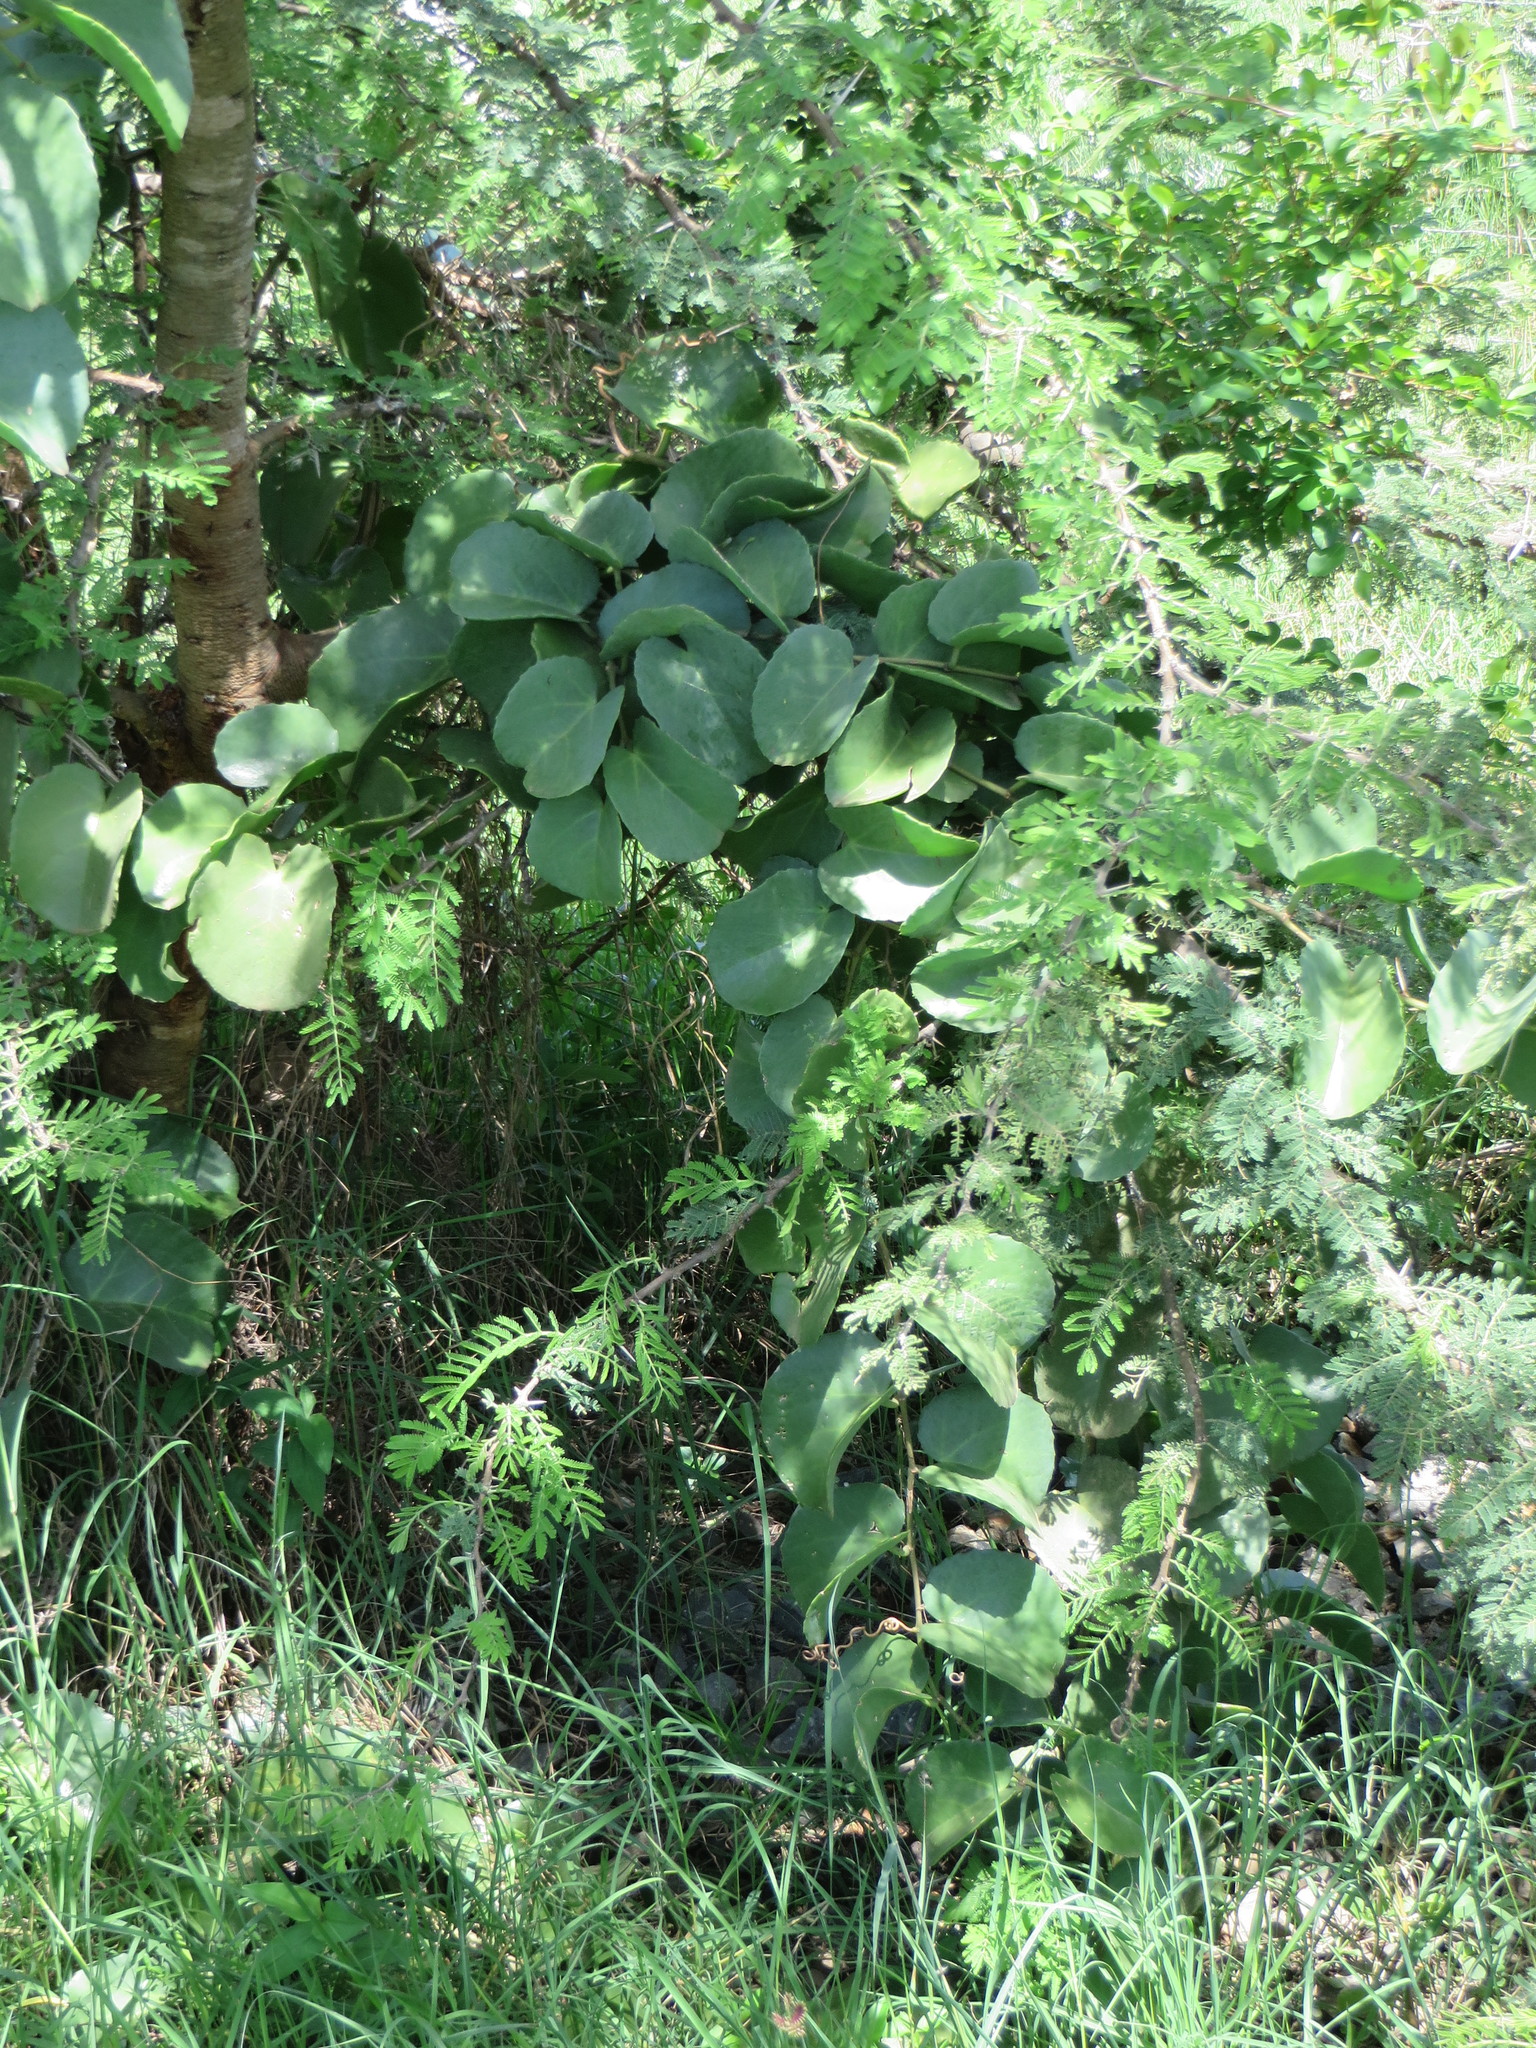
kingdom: Plantae
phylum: Tracheophyta
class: Magnoliopsida
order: Vitales
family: Vitaceae
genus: Cissus
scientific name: Cissus rotundifolia
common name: Arabian wax cissus
